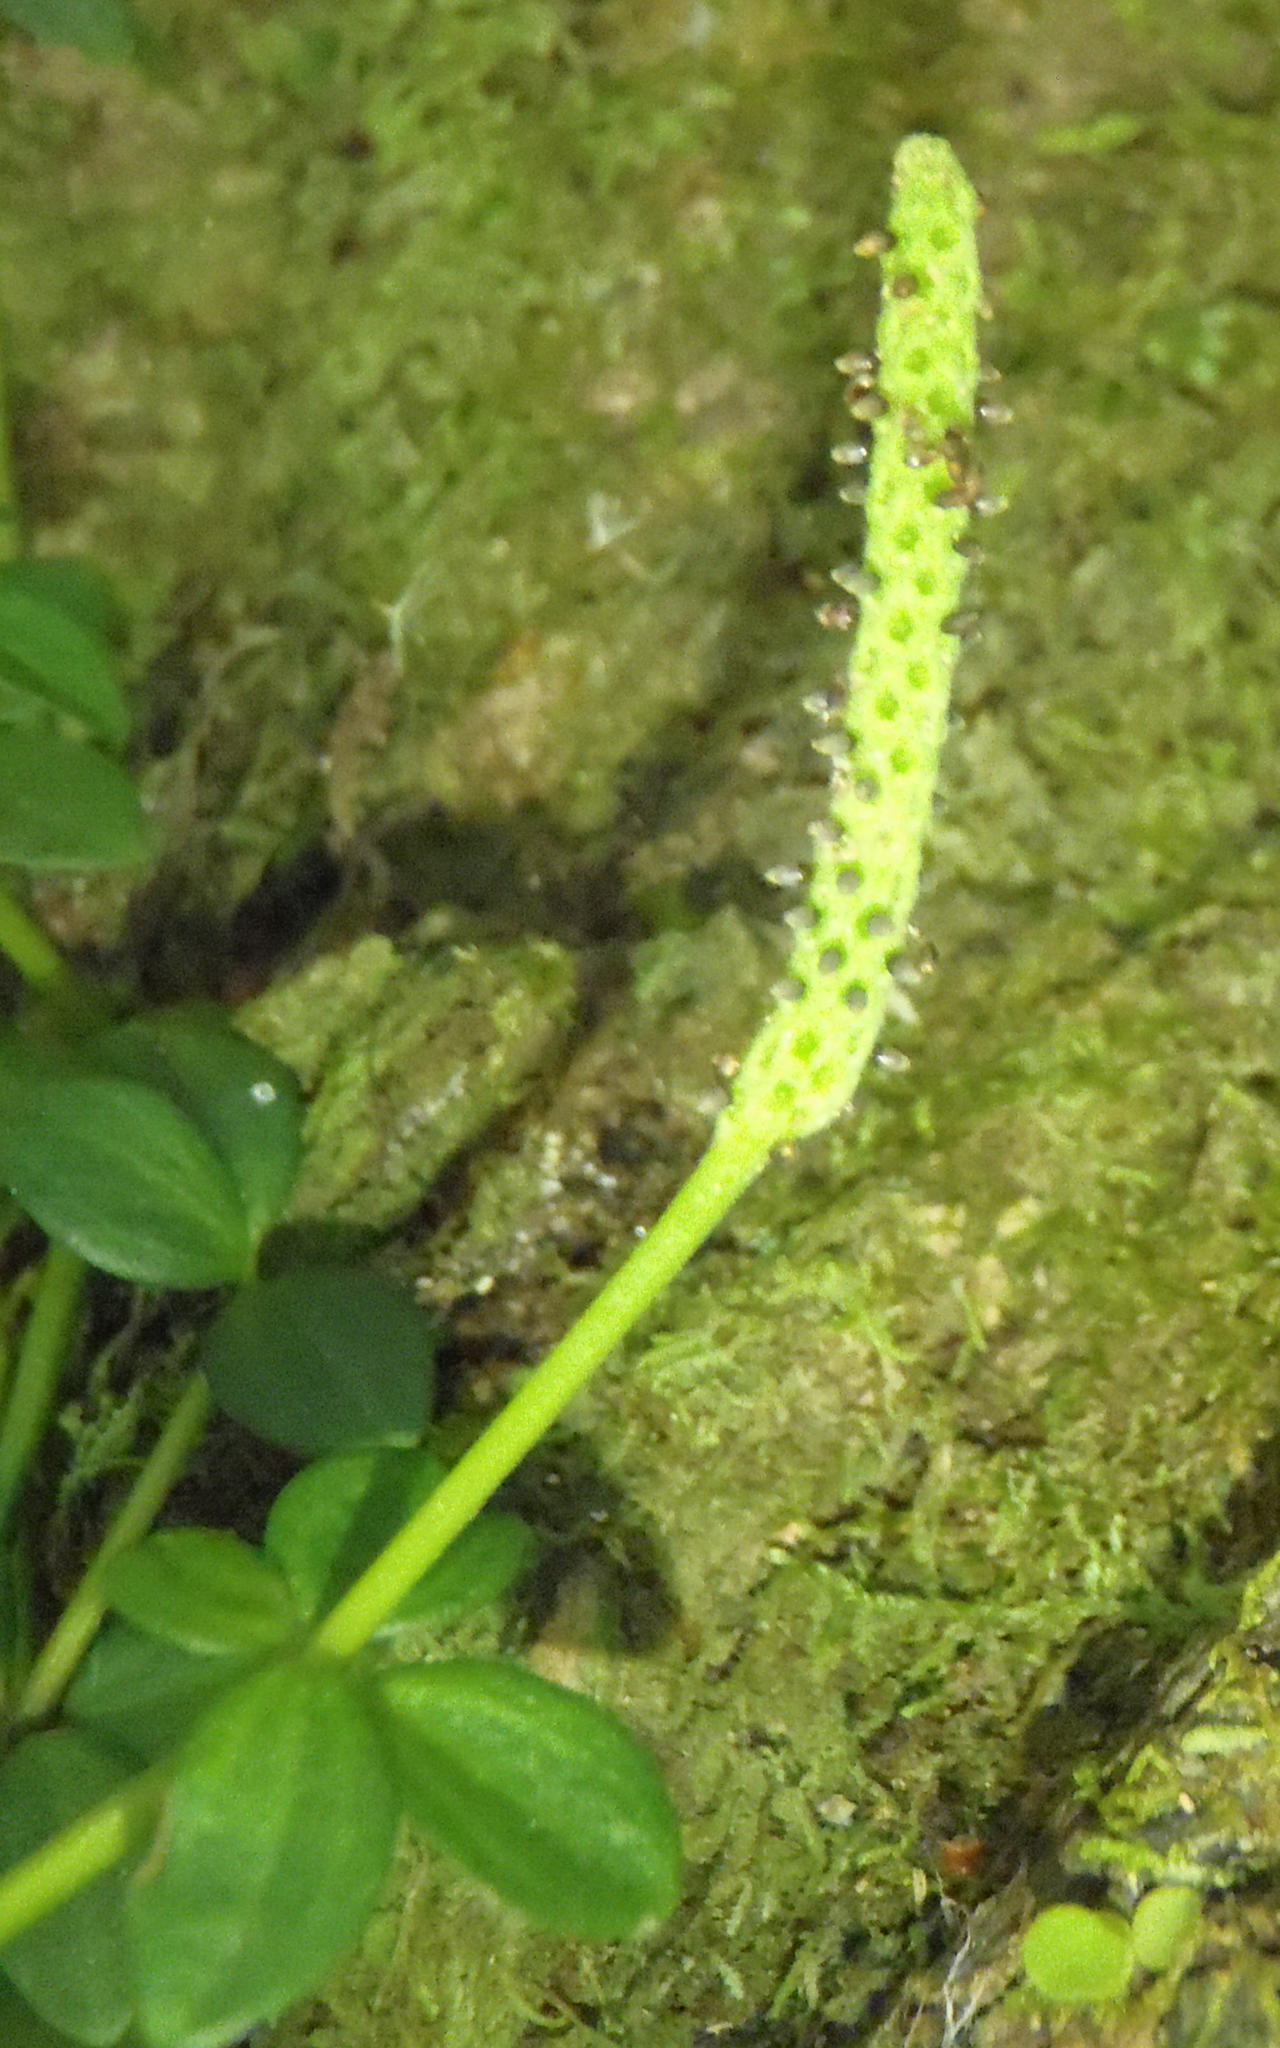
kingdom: Plantae
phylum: Tracheophyta
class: Magnoliopsida
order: Piperales
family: Piperaceae
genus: Peperomia
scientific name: Peperomia tetraphylla
